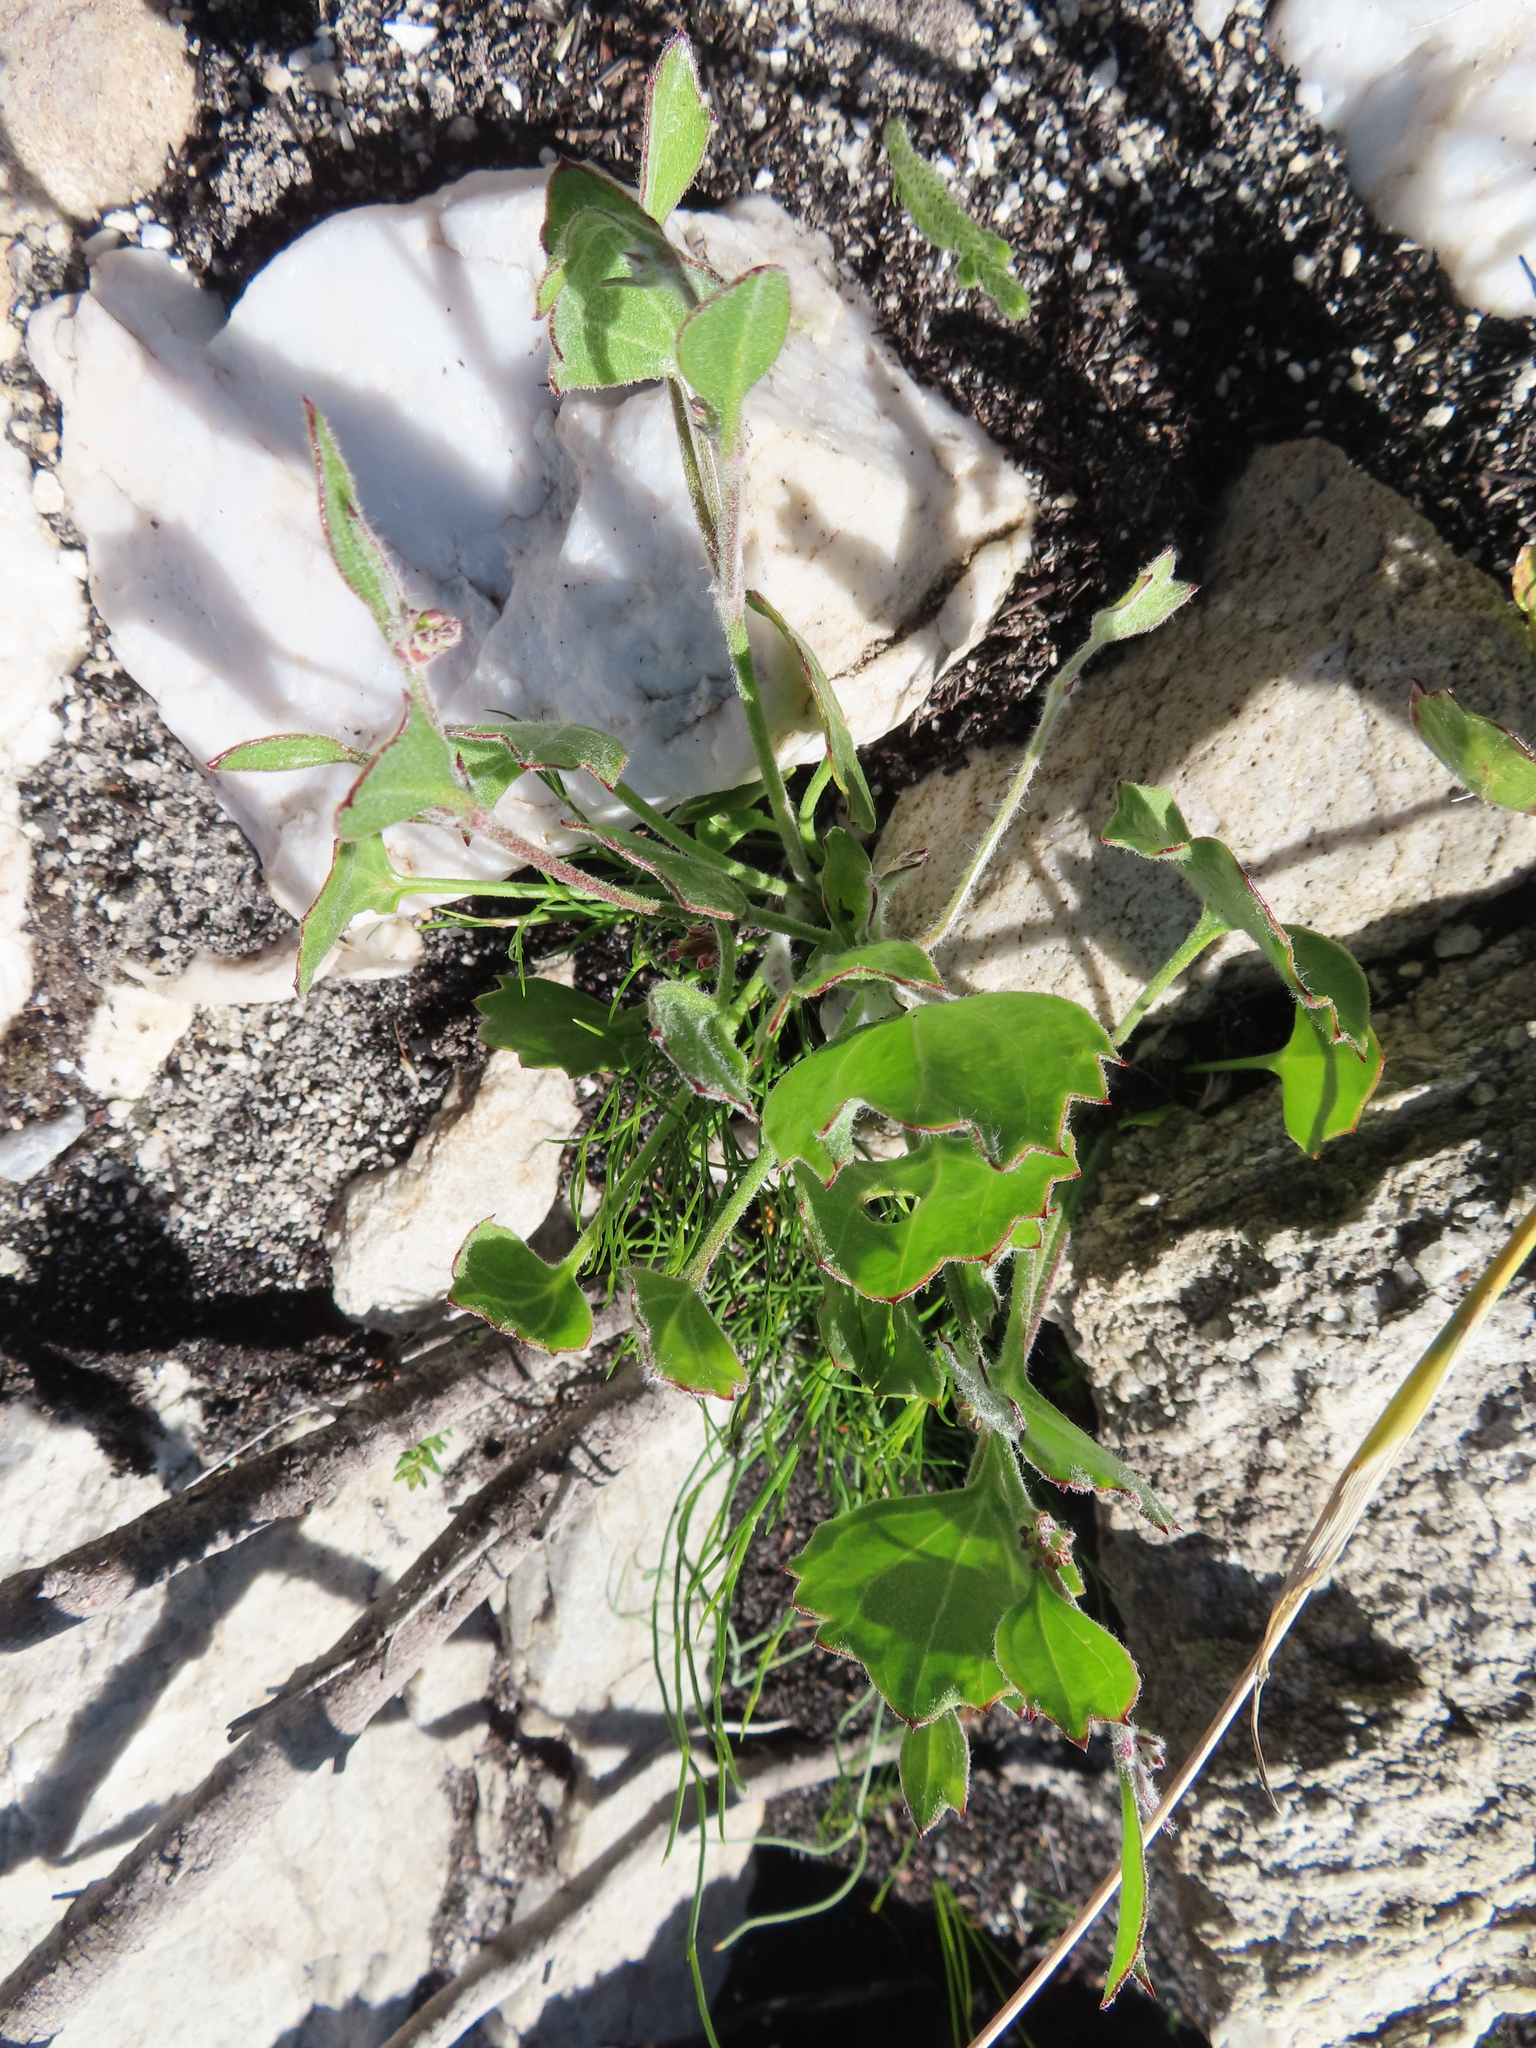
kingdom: Plantae
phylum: Tracheophyta
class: Magnoliopsida
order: Apiales
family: Apiaceae
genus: Centella
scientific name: Centella difformis
